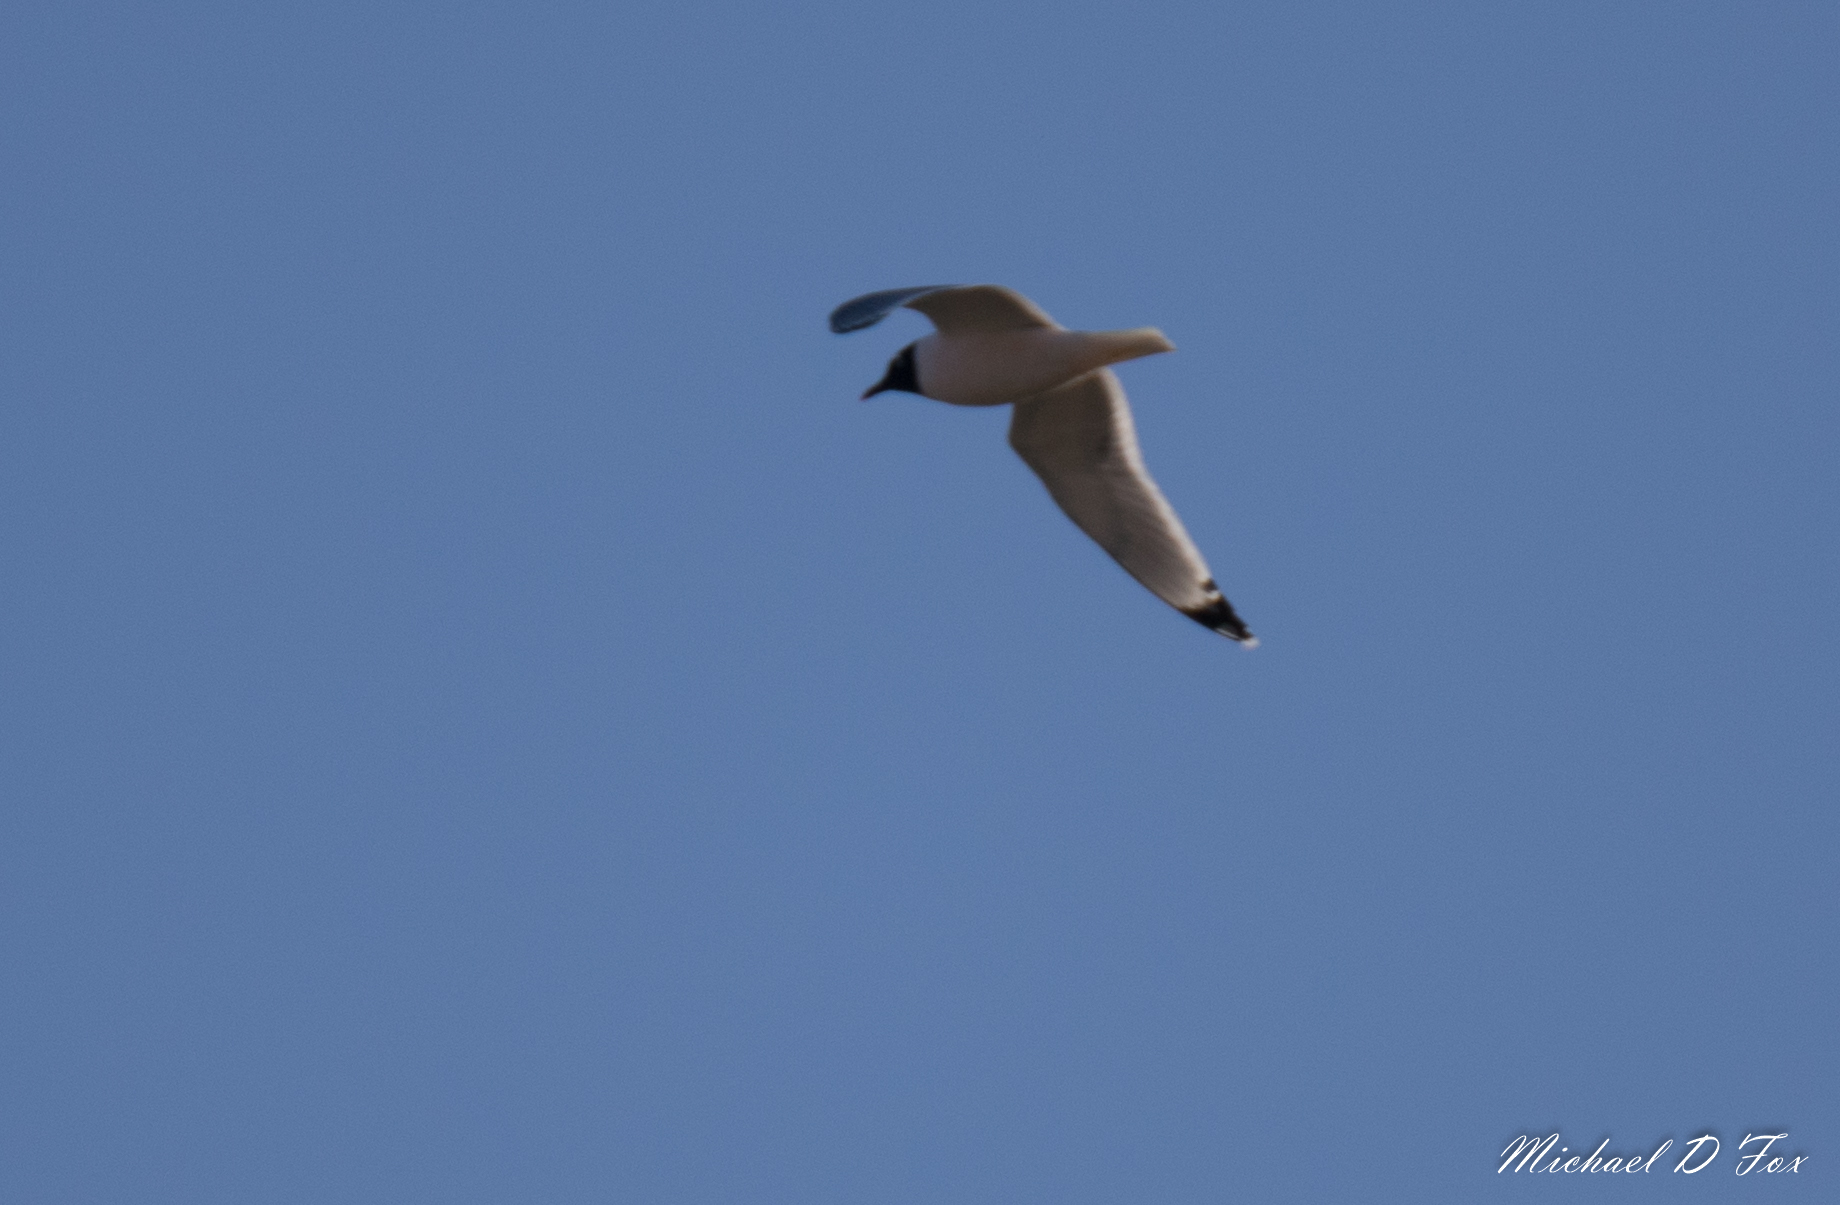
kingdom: Animalia
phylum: Chordata
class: Aves
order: Charadriiformes
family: Laridae
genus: Leucophaeus
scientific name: Leucophaeus pipixcan
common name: Franklin's gull
